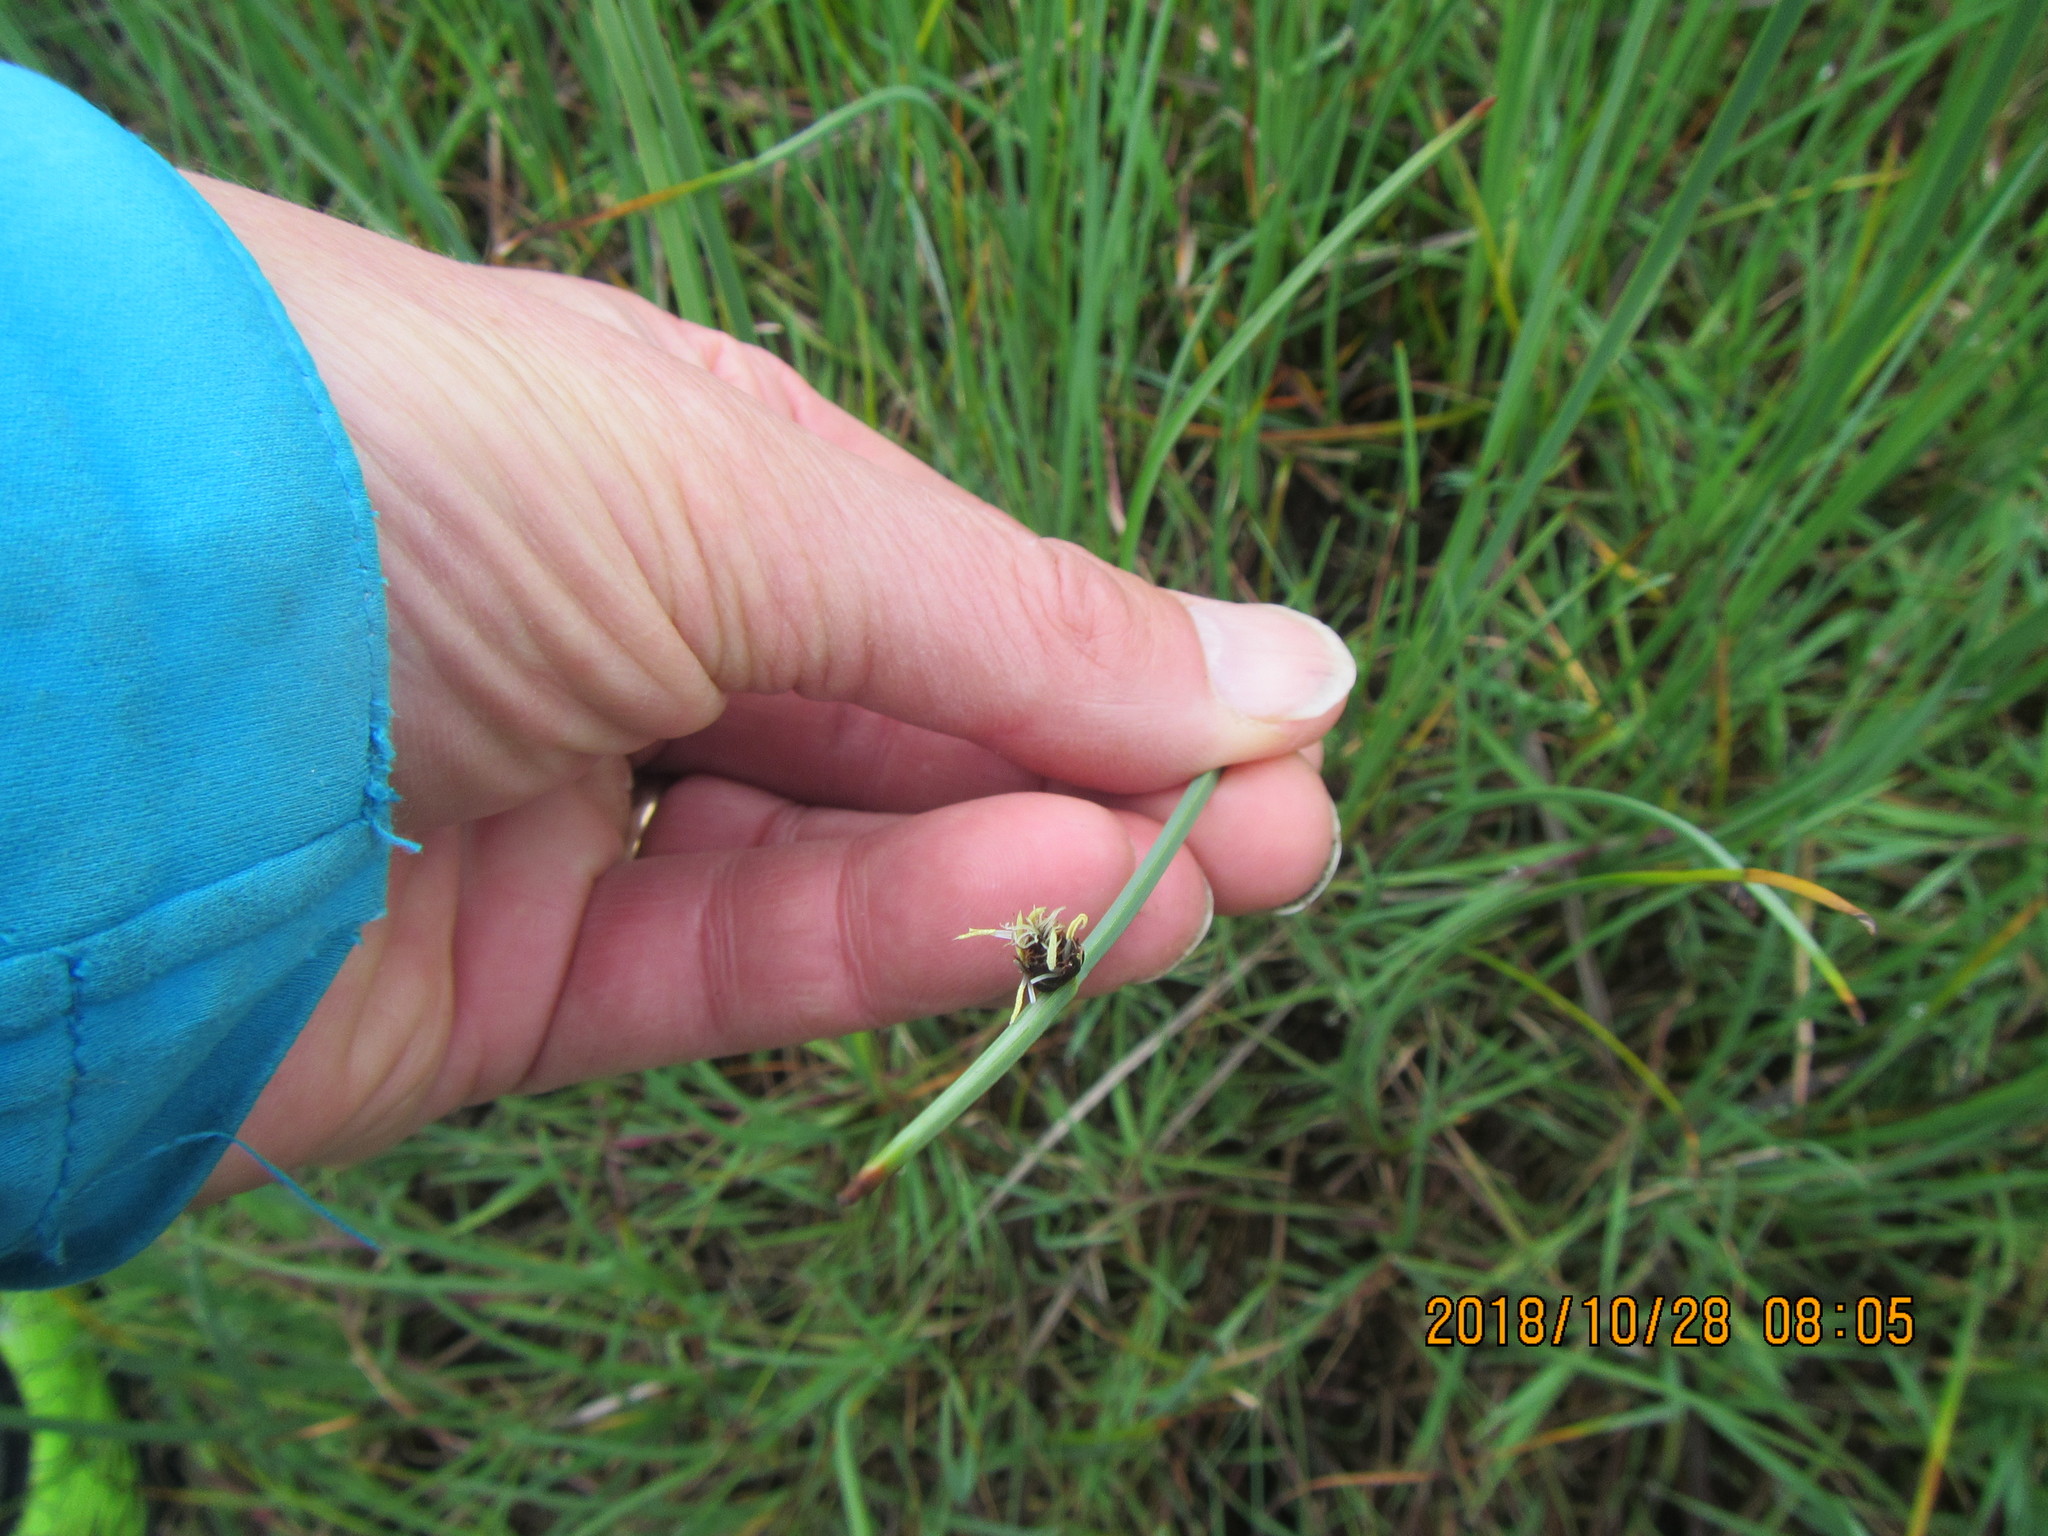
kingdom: Plantae
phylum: Tracheophyta
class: Liliopsida
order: Poales
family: Cyperaceae
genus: Schoenoplectus
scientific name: Schoenoplectus pungens
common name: Sharp club-rush
